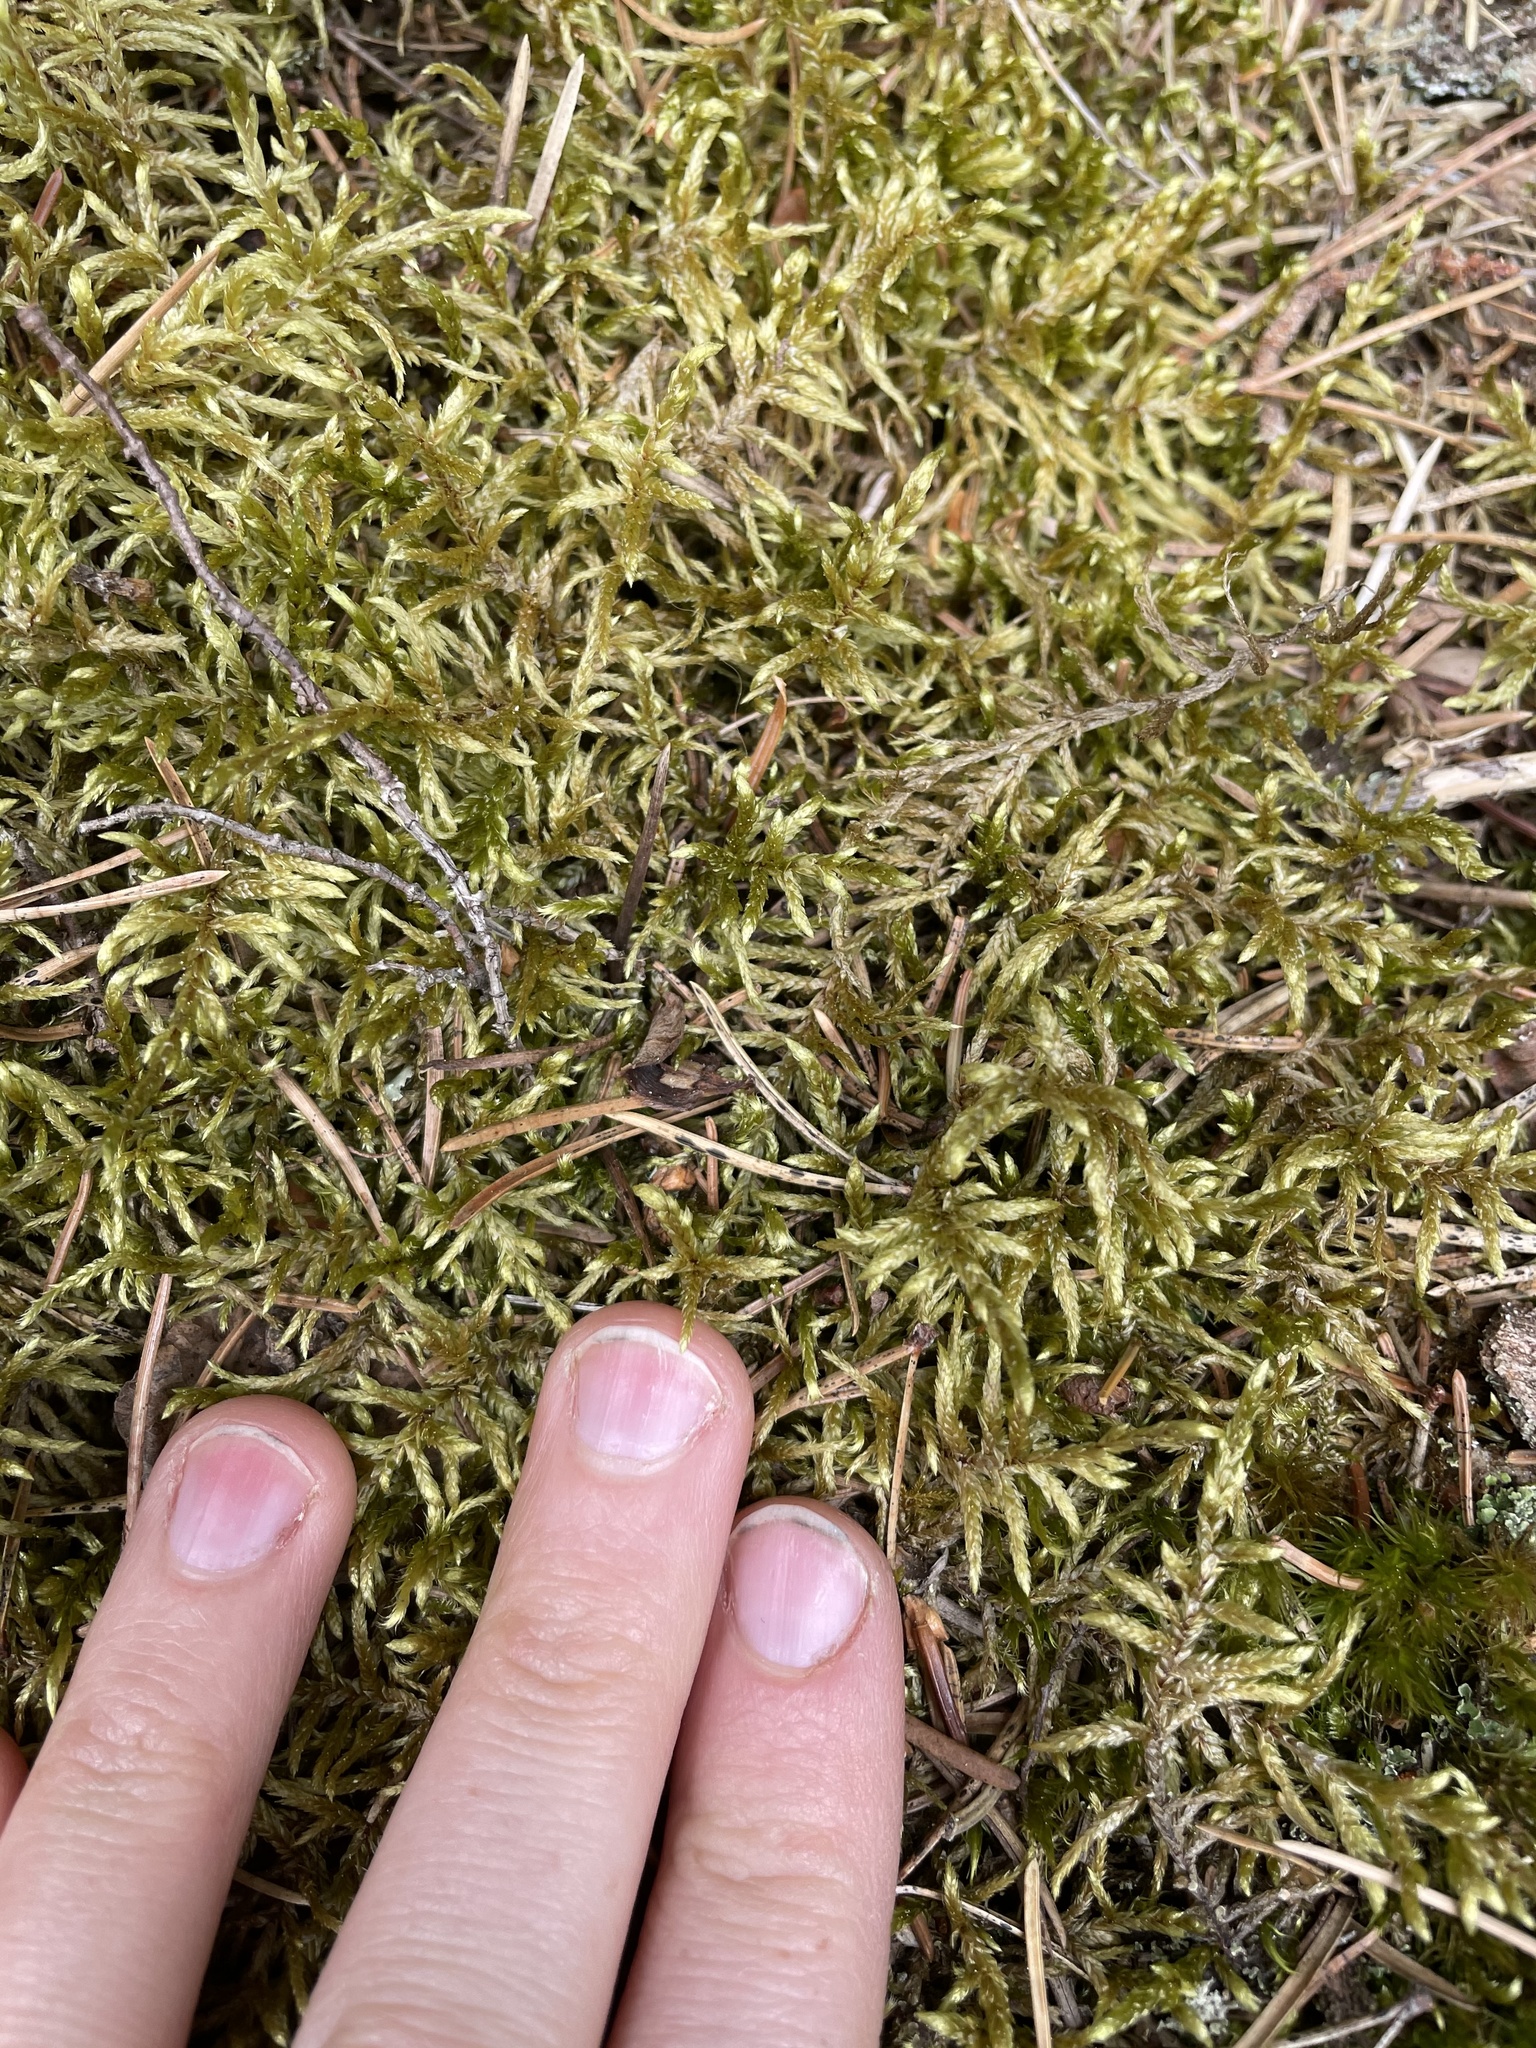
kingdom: Plantae
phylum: Bryophyta
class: Bryopsida
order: Hypnales
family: Hylocomiaceae
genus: Pleurozium
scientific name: Pleurozium schreberi
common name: Red-stemmed feather moss
